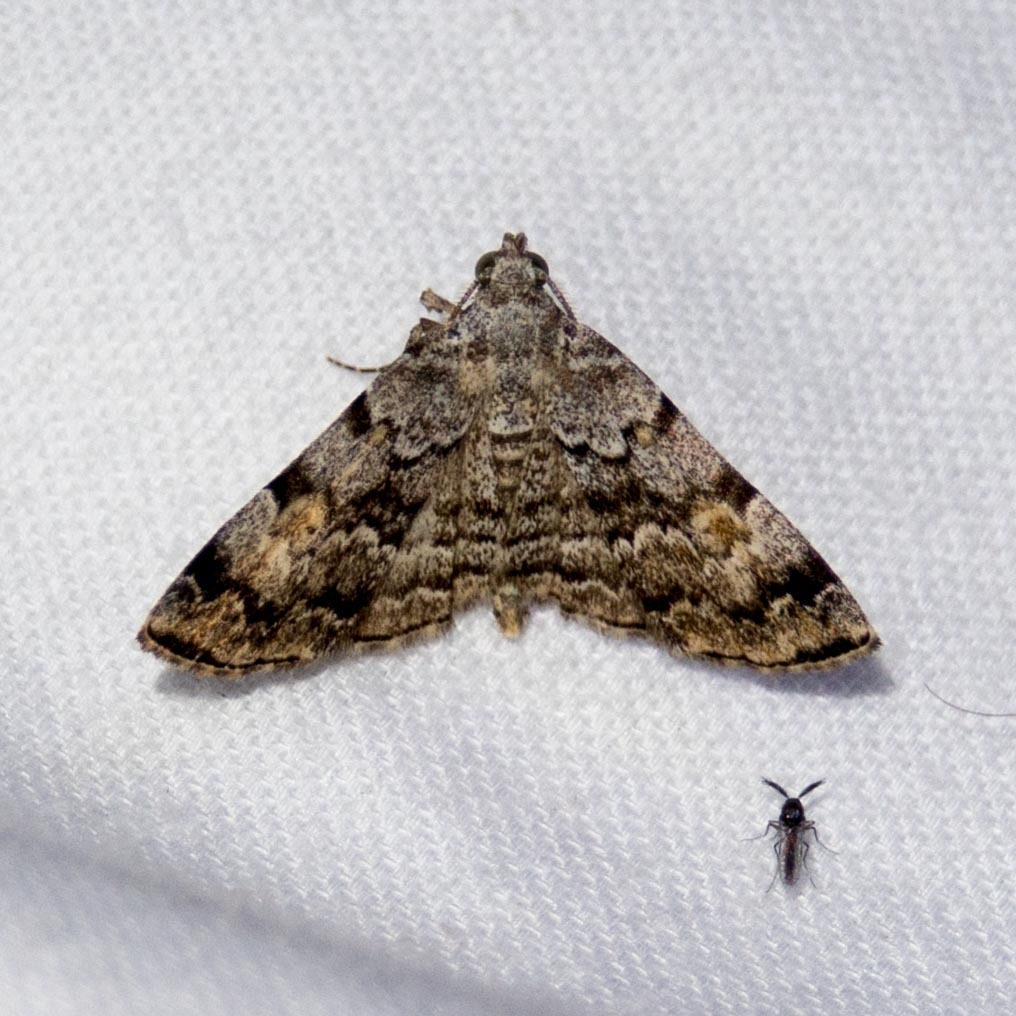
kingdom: Animalia
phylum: Arthropoda
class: Insecta
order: Lepidoptera
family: Erebidae
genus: Idia
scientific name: Idia americalis
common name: American idia moth
